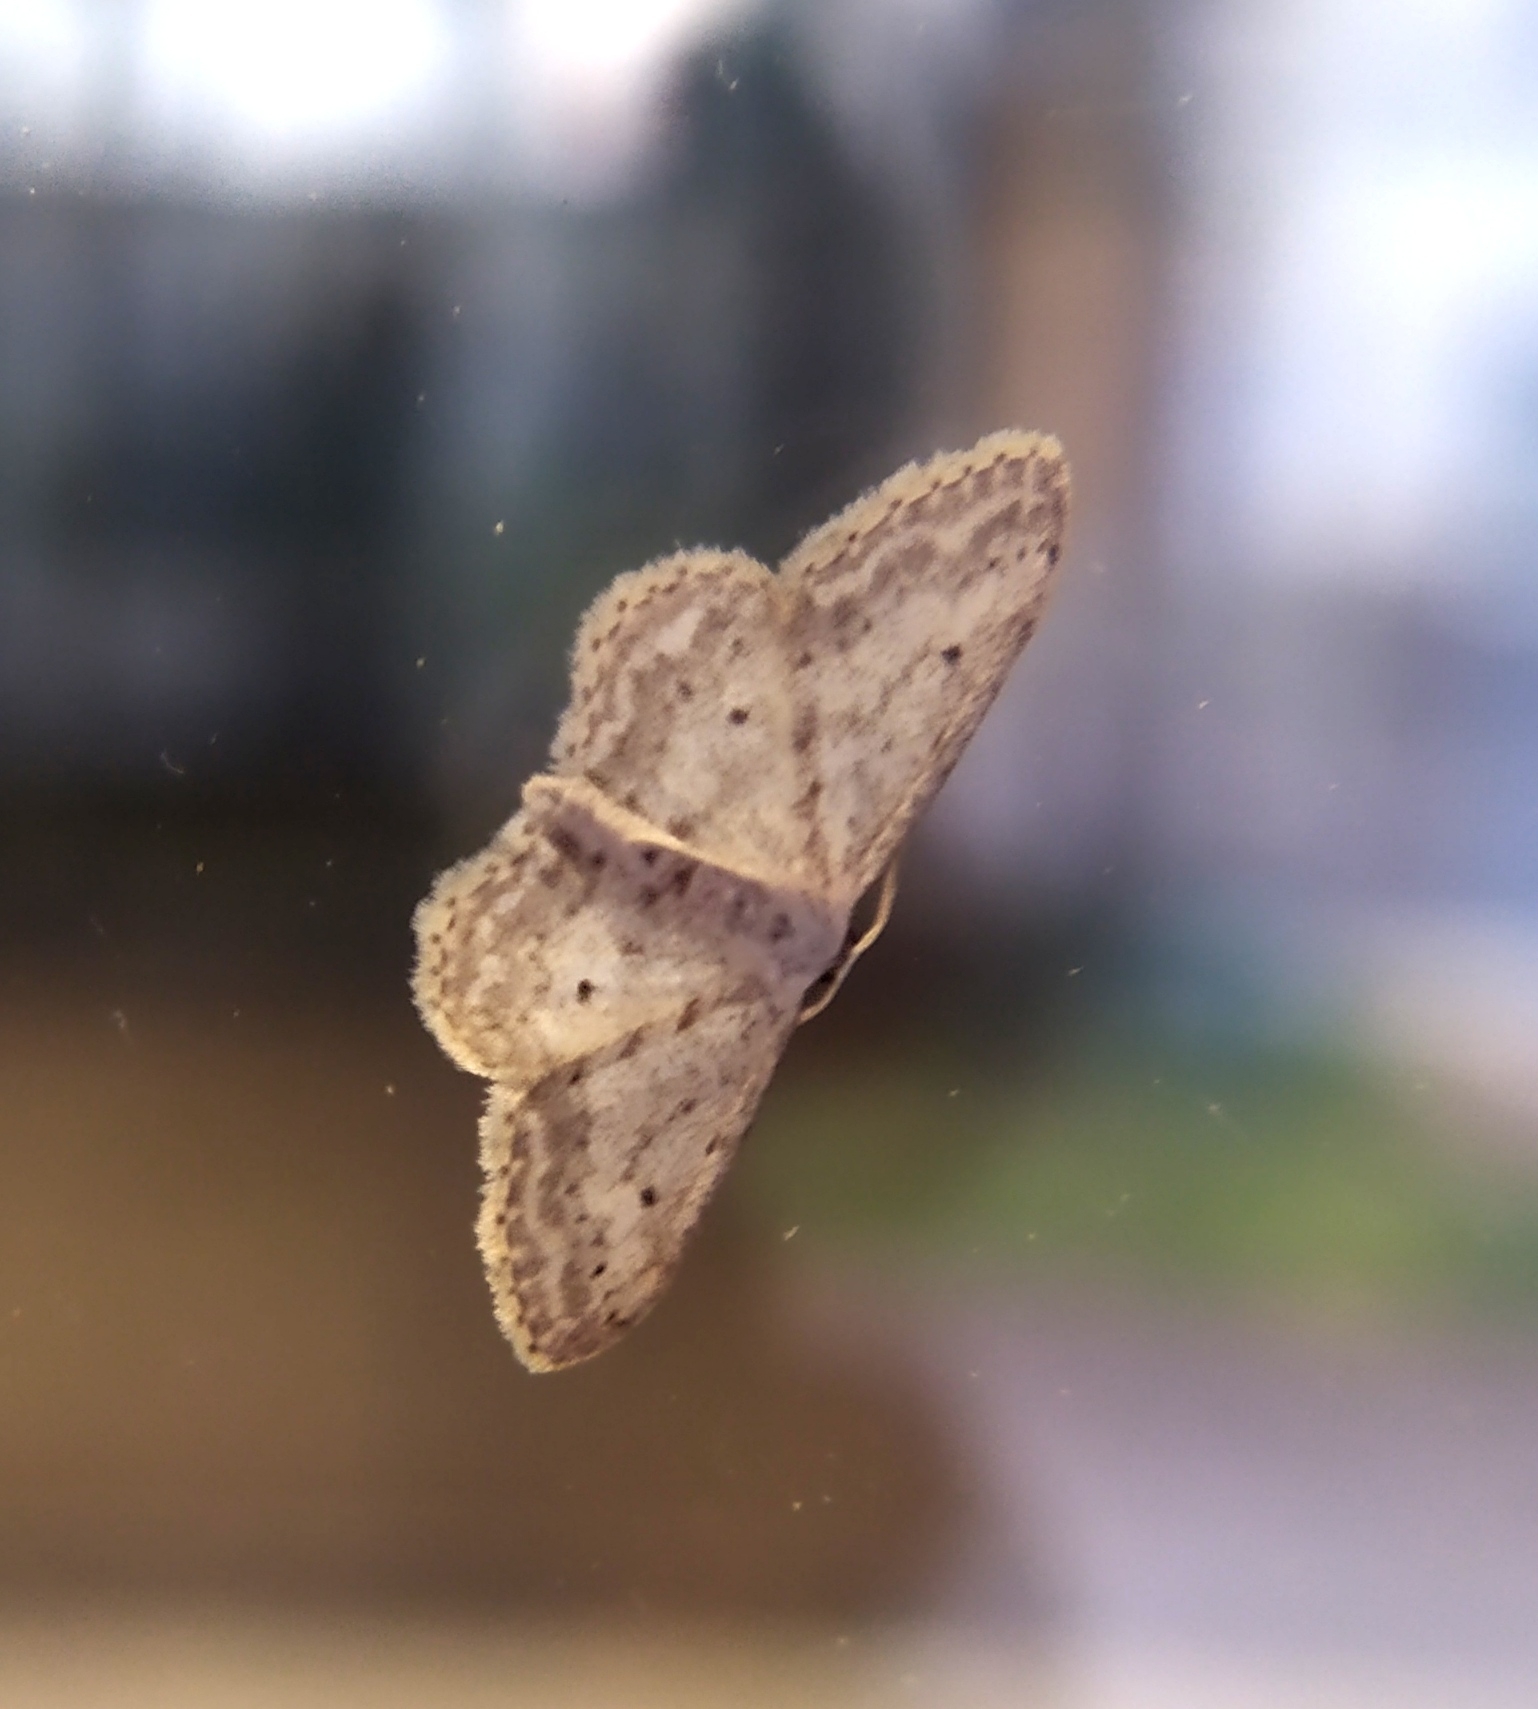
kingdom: Animalia
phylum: Arthropoda
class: Insecta
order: Lepidoptera
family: Geometridae
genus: Idaea
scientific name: Idaea seriata
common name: Small dusty wave
